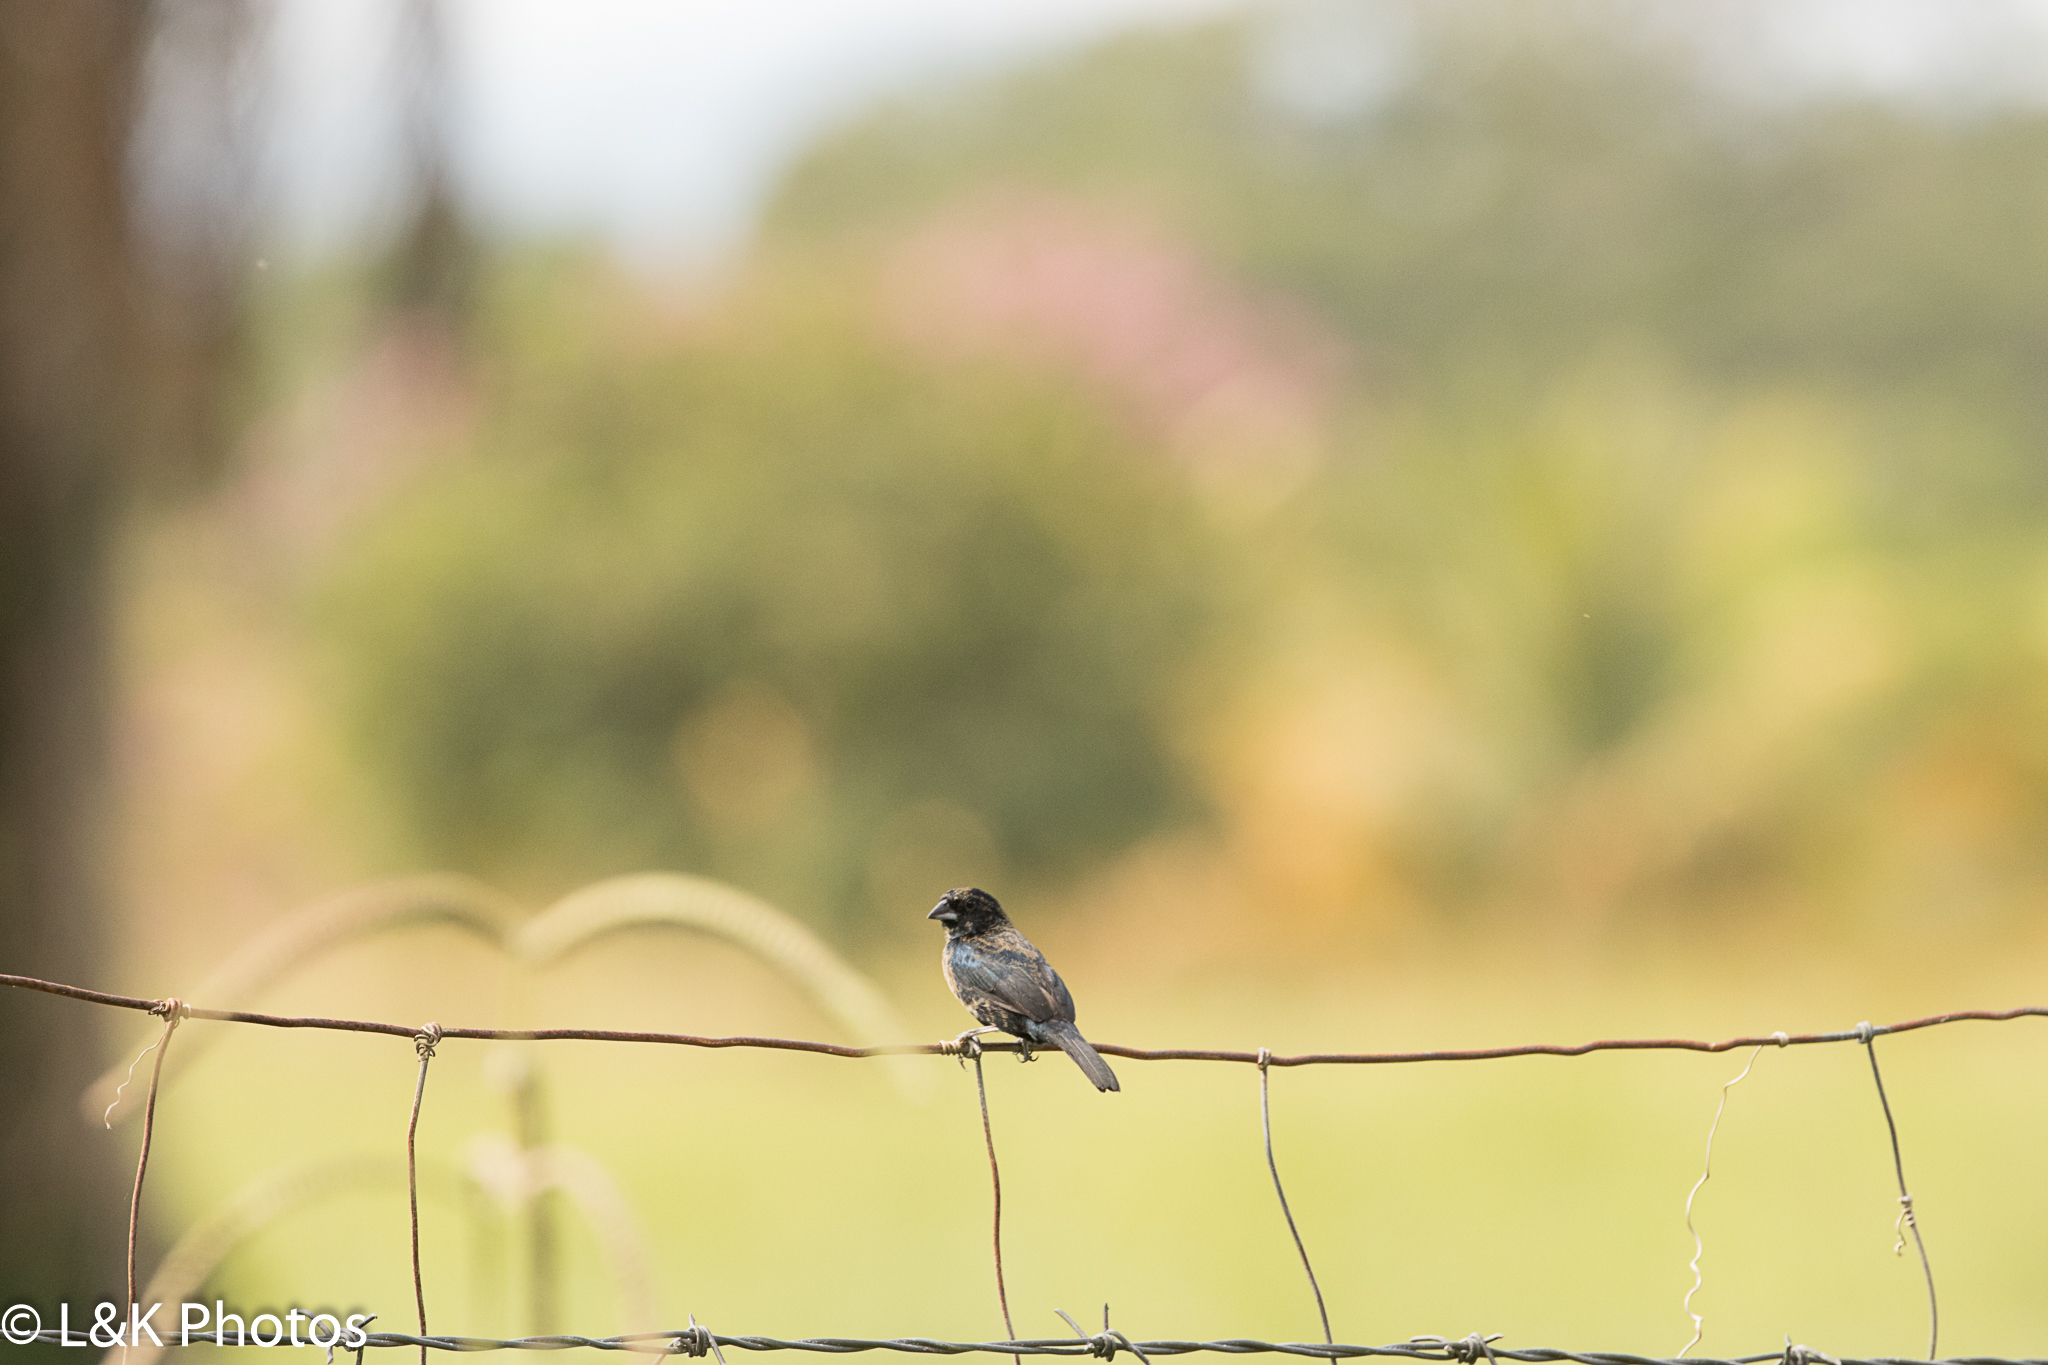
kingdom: Animalia
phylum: Chordata
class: Aves
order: Passeriformes
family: Thraupidae
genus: Volatinia
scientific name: Volatinia jacarina
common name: Blue-black grassquit
